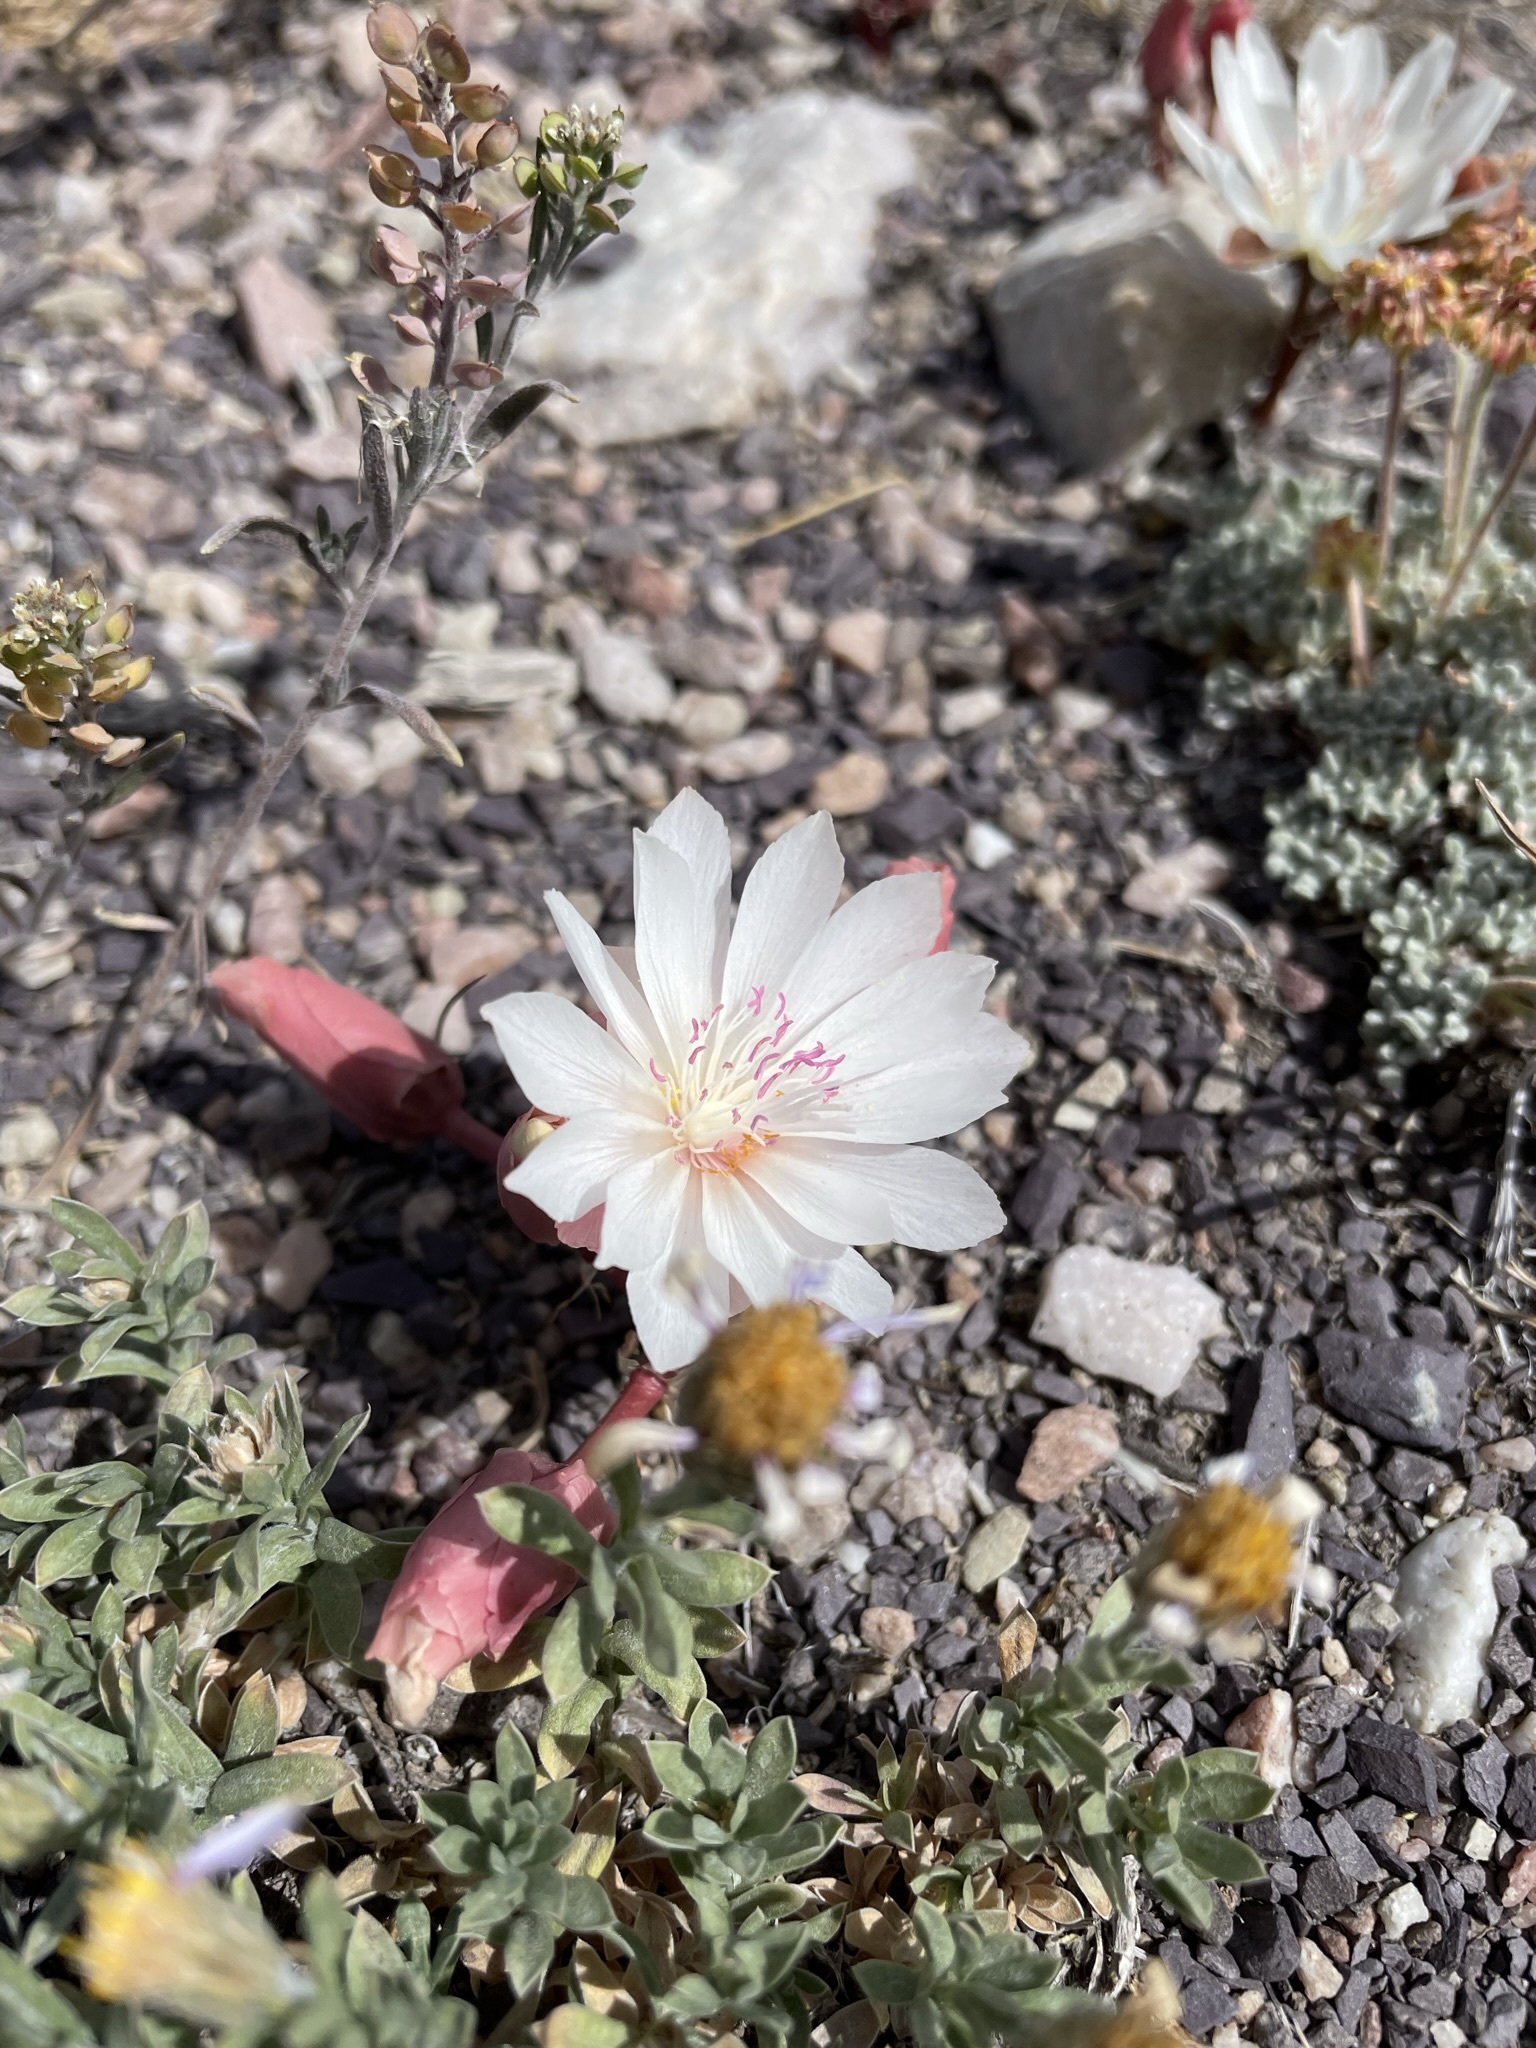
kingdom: Plantae
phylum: Tracheophyta
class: Magnoliopsida
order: Caryophyllales
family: Montiaceae
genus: Lewisia
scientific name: Lewisia rediviva
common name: Bitter-root
